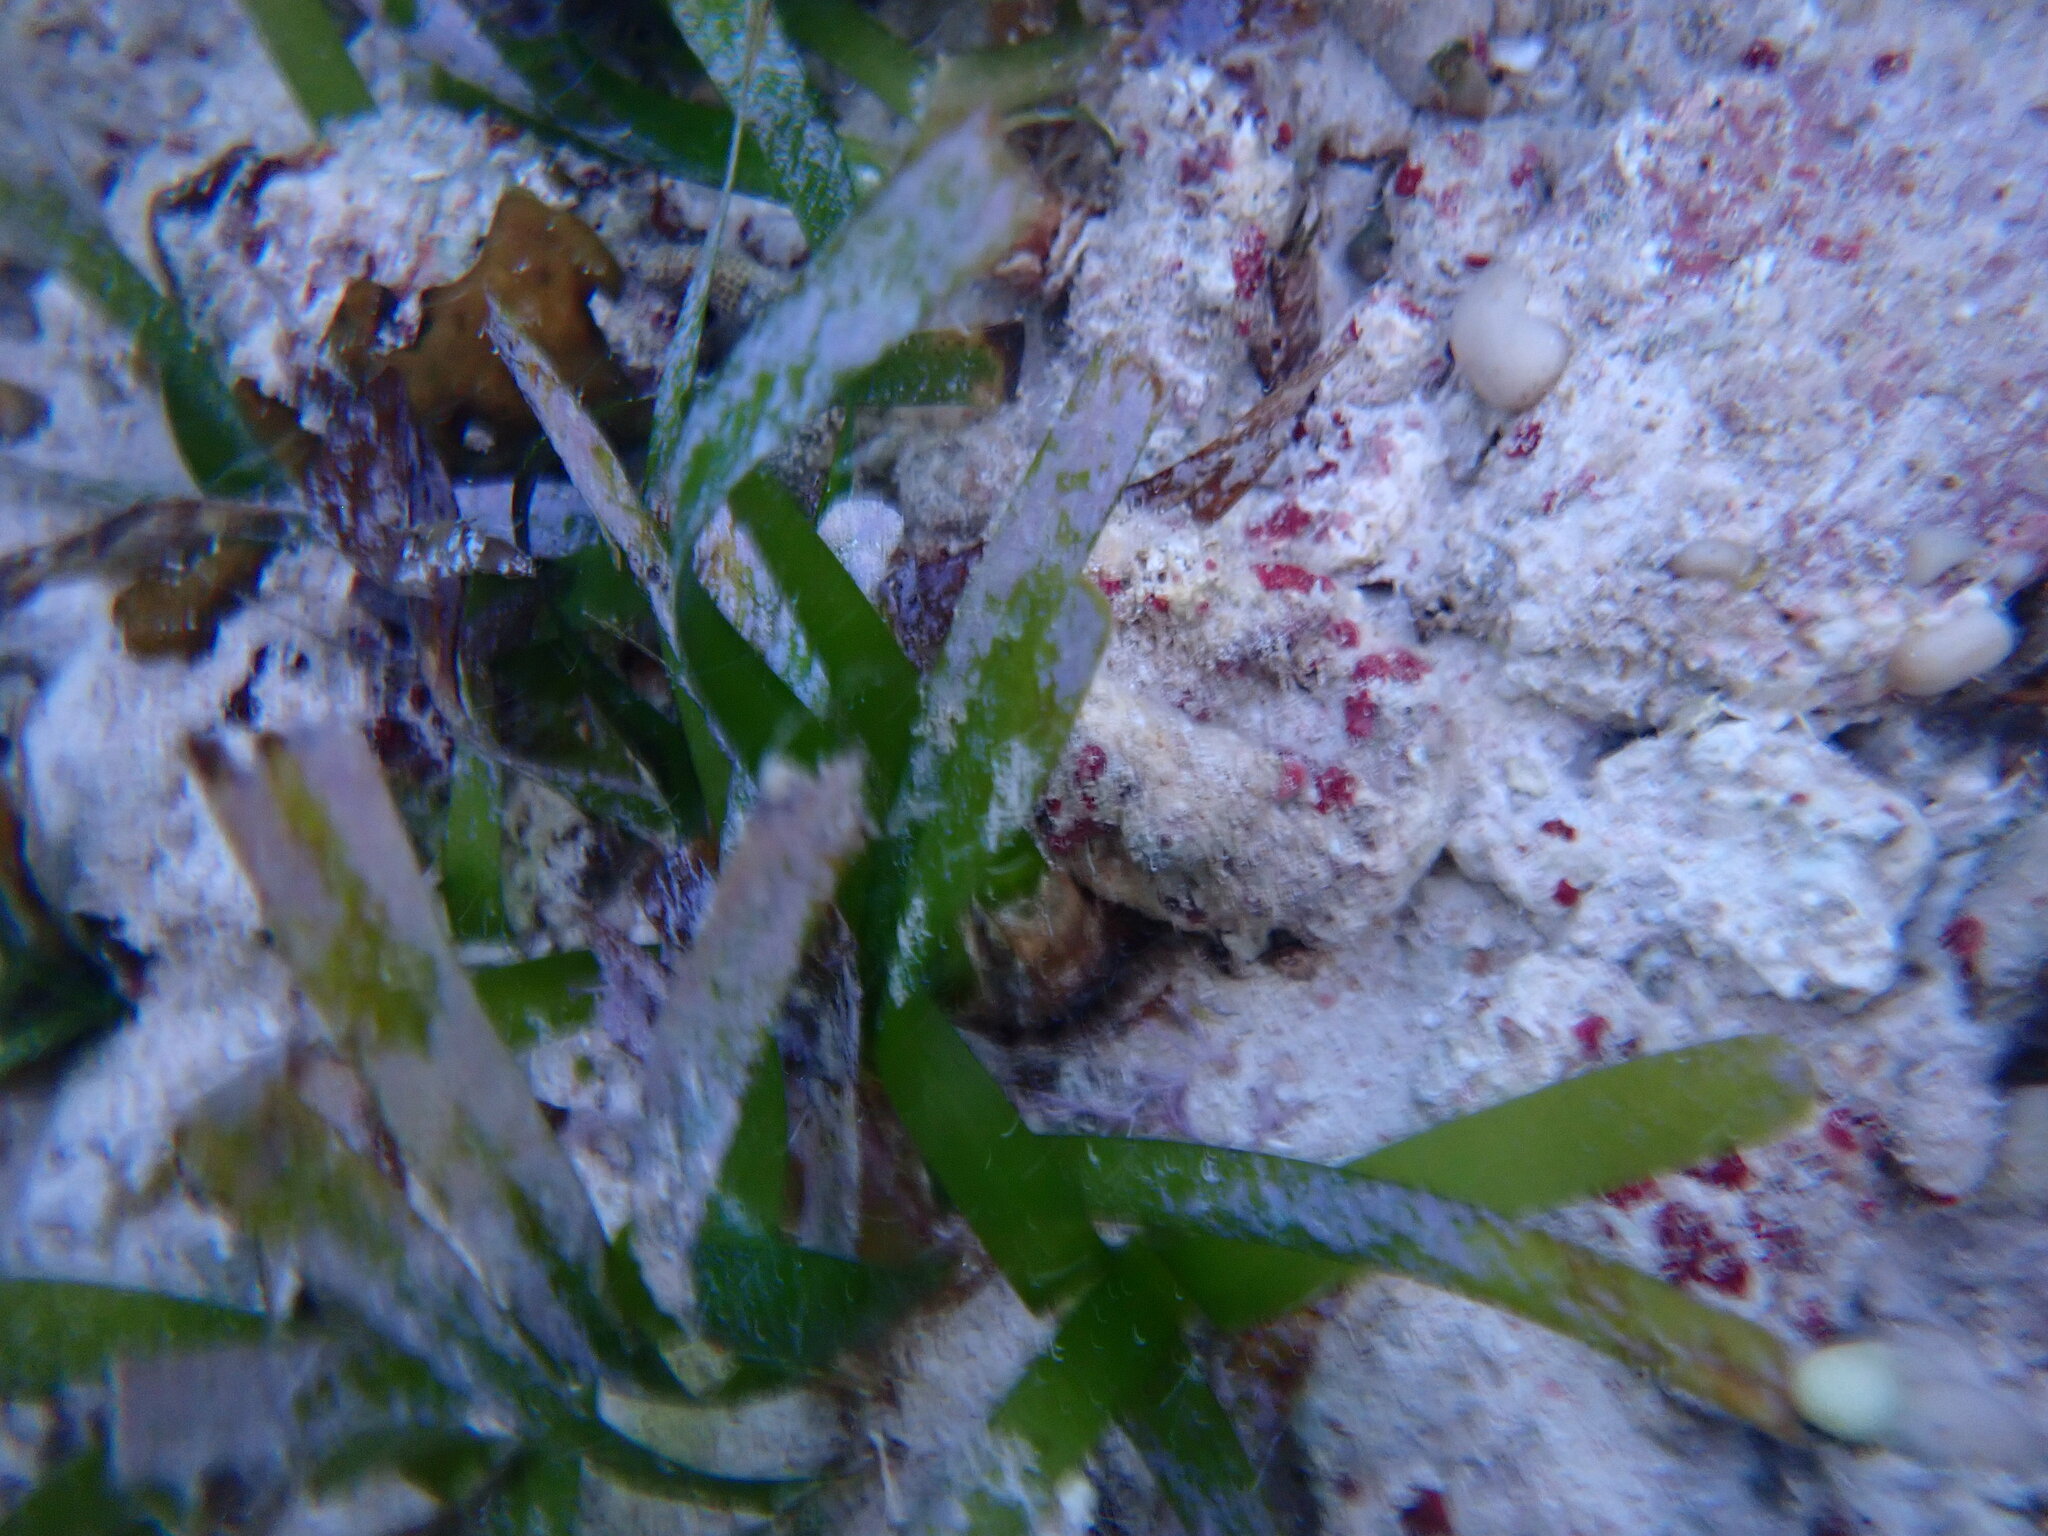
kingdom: Plantae
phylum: Tracheophyta
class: Liliopsida
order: Alismatales
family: Hydrocharitaceae
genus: Thalassia
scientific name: Thalassia testudinum
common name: Species code: tt
